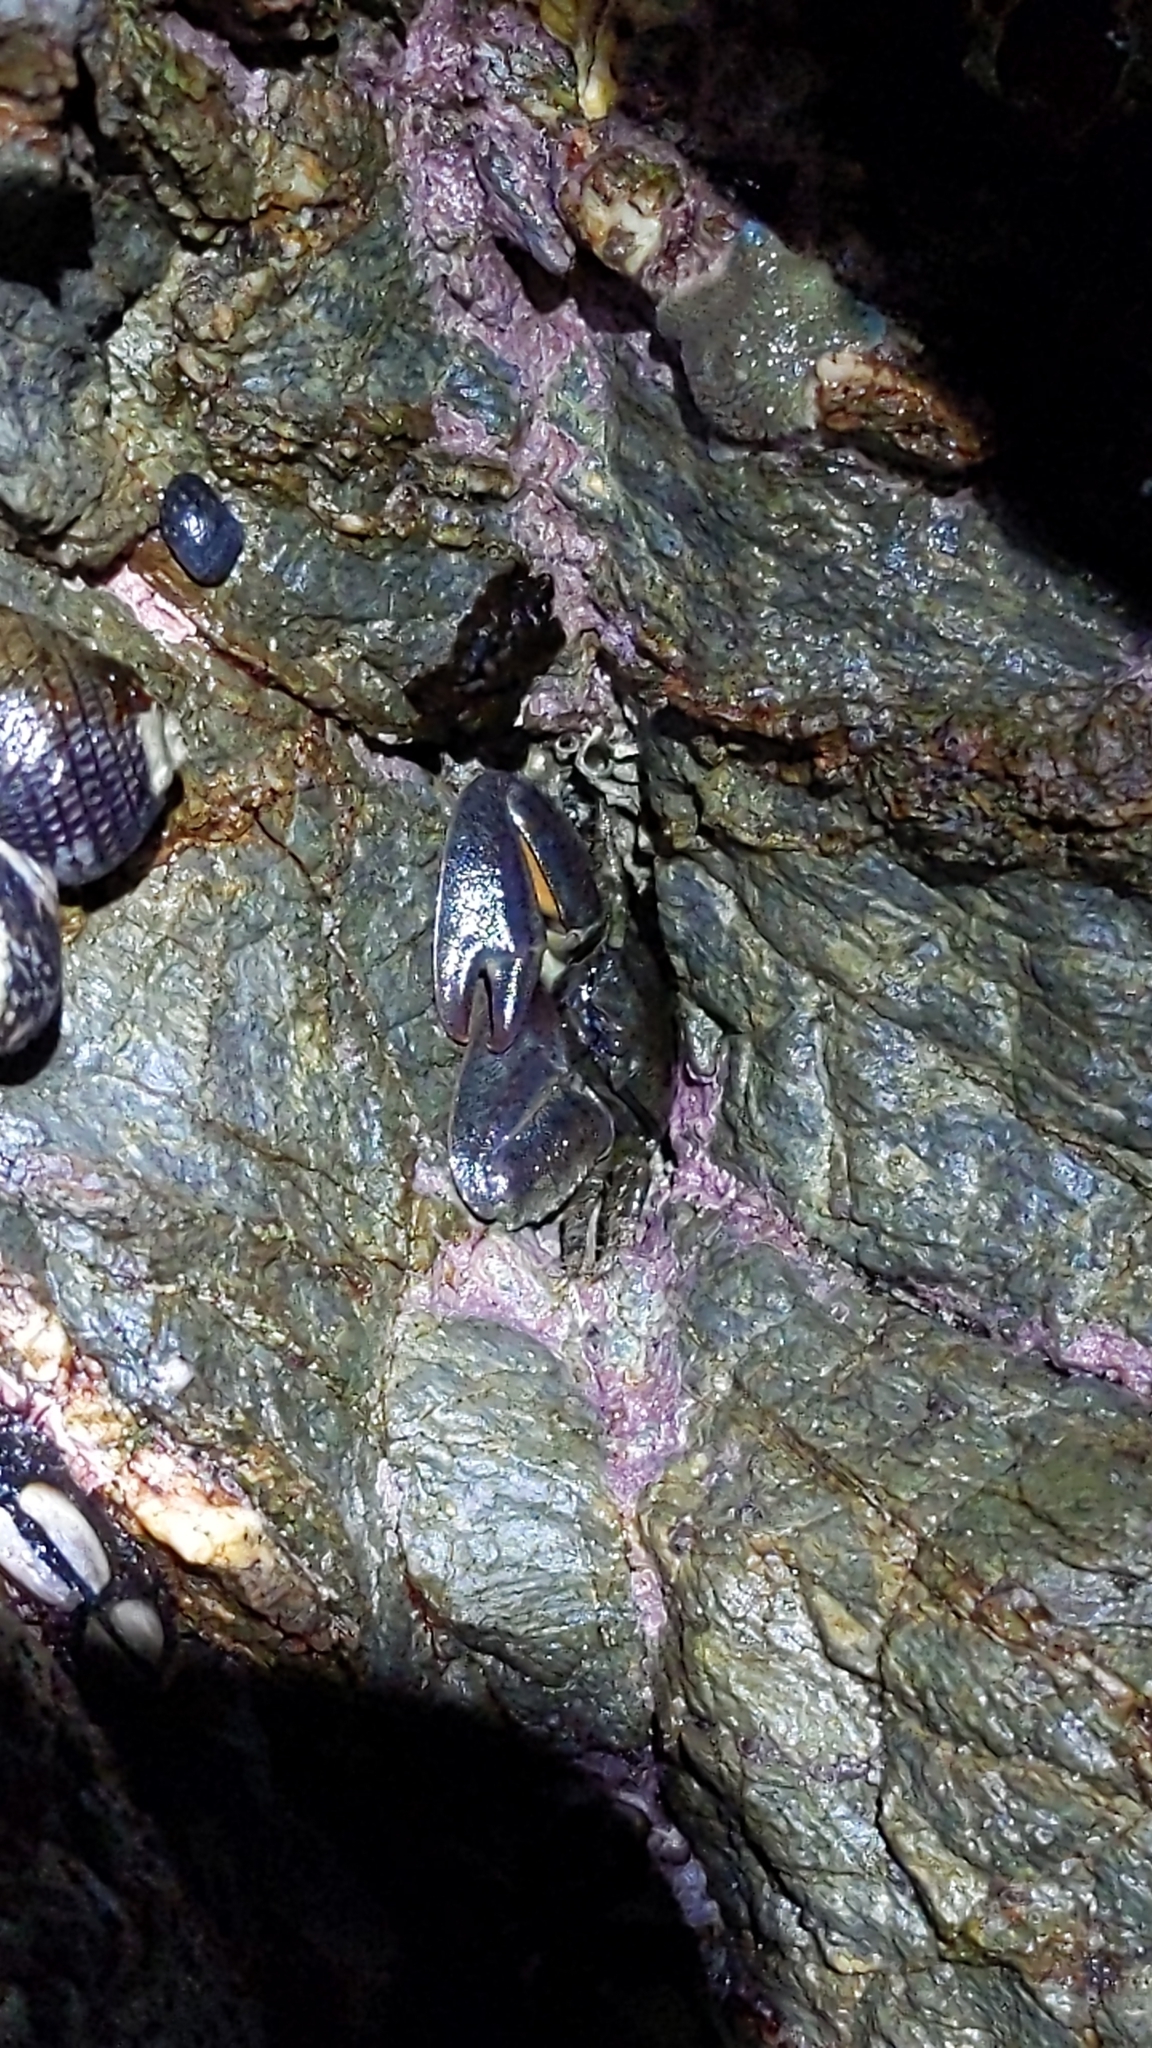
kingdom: Animalia
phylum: Arthropoda
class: Malacostraca
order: Decapoda
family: Porcellanidae
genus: Petrolisthes
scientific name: Petrolisthes elongatus
